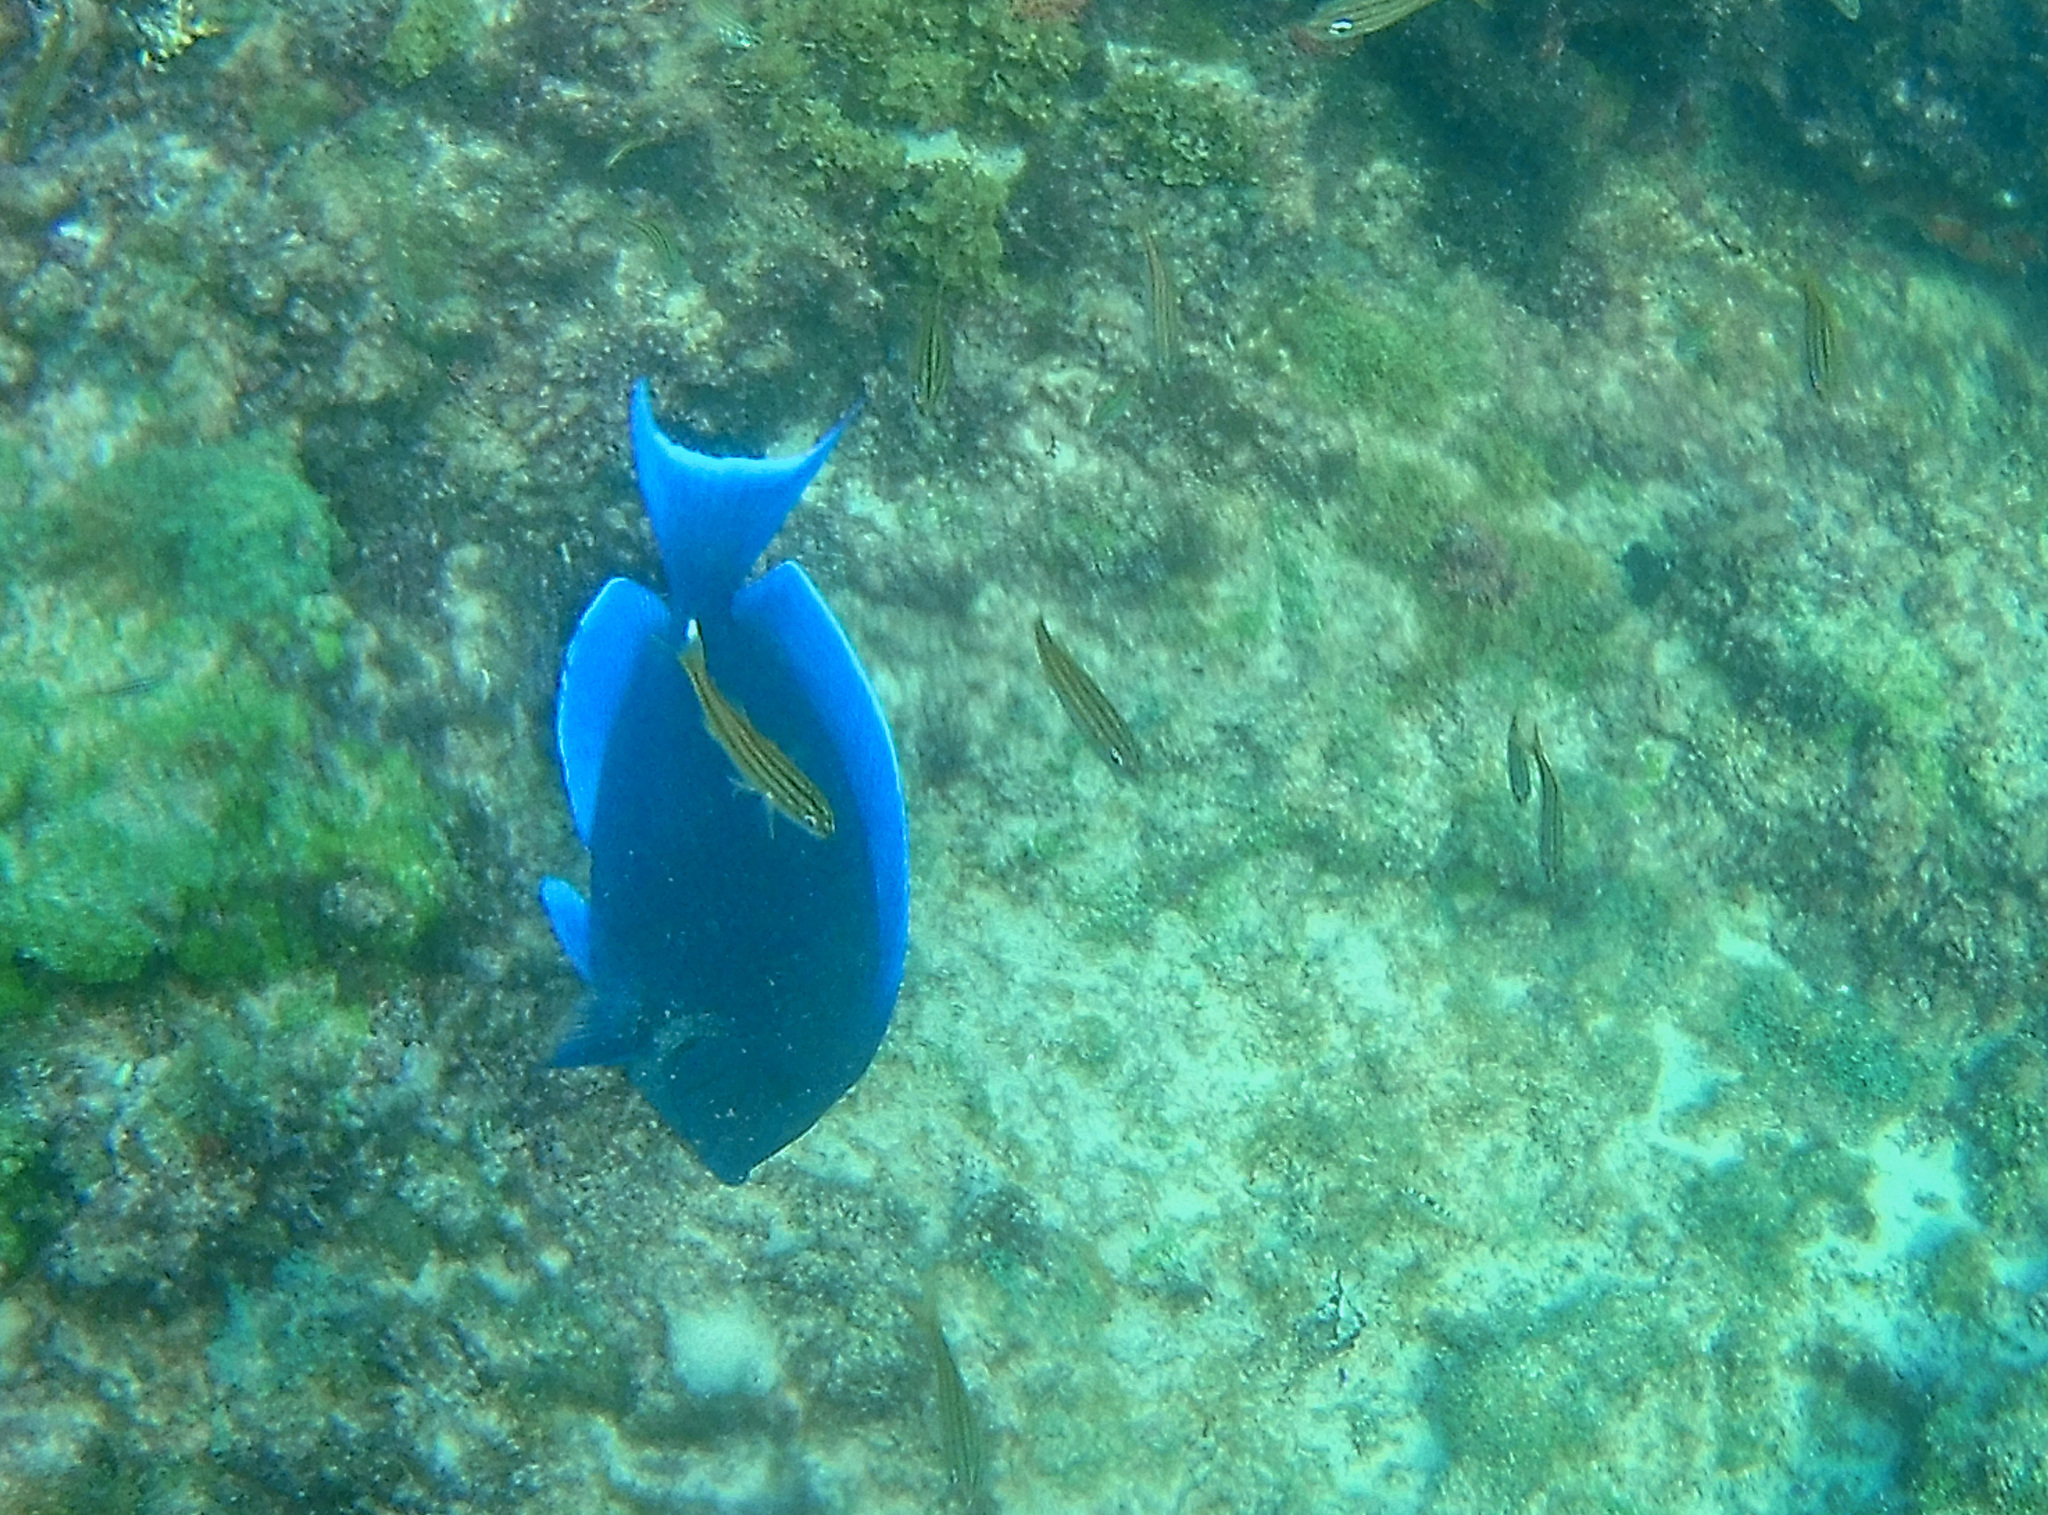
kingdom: Animalia
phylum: Chordata
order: Perciformes
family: Acanthuridae
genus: Acanthurus
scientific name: Acanthurus coeruleus
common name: Blue tang
